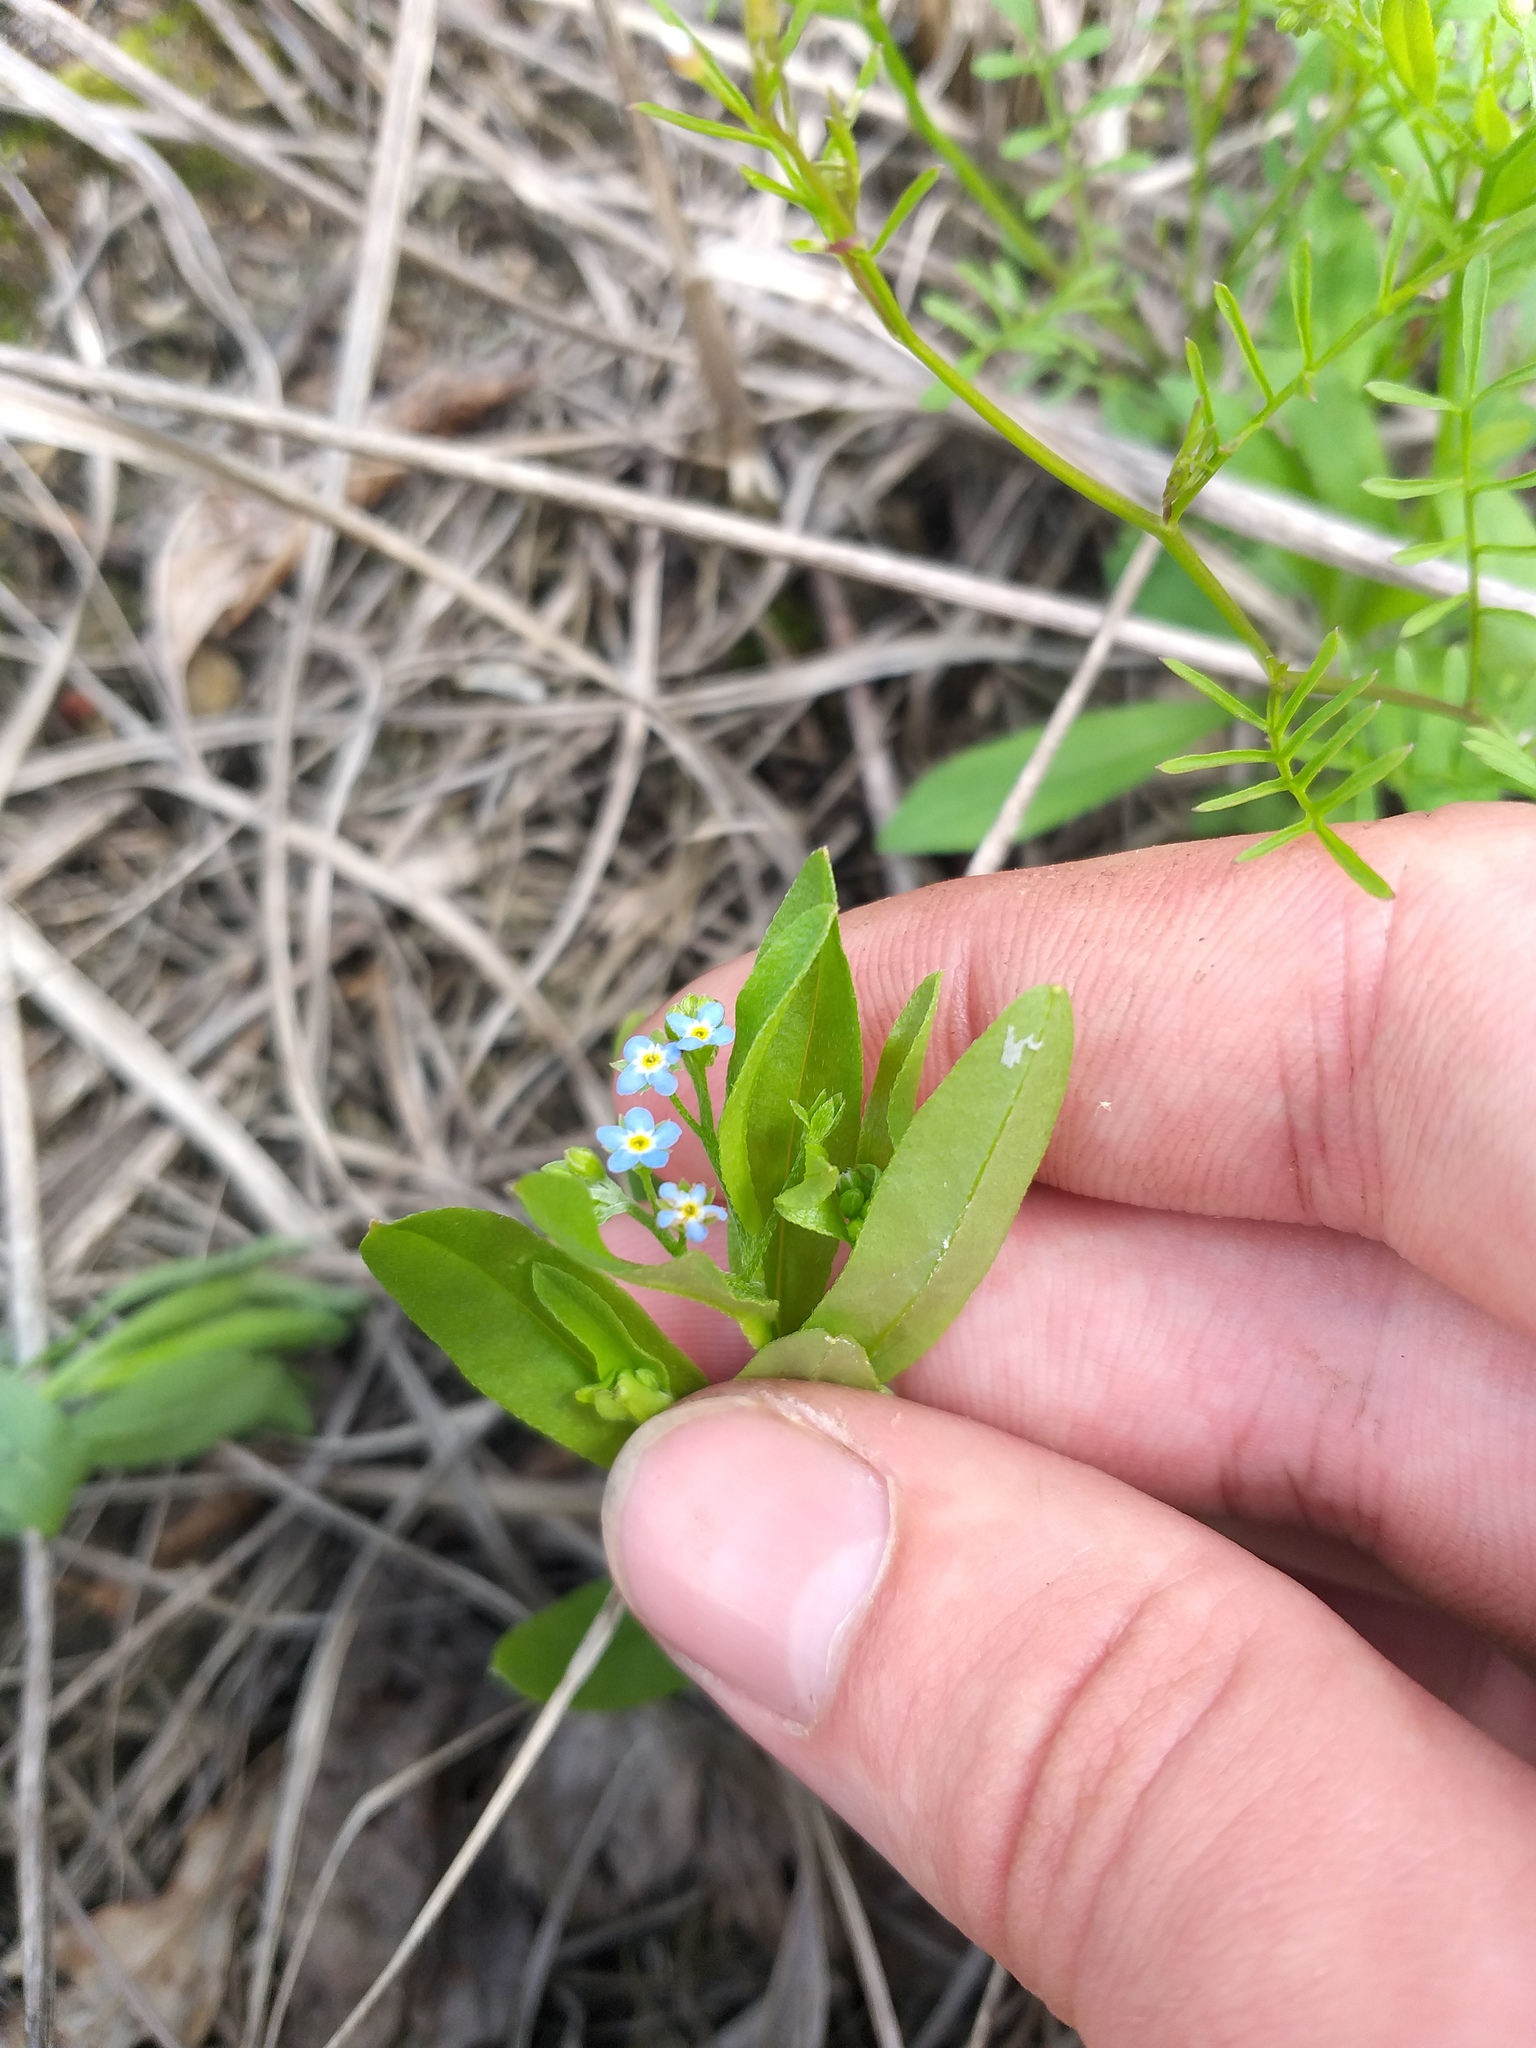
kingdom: Plantae
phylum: Tracheophyta
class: Magnoliopsida
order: Boraginales
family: Boraginaceae
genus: Myosotis
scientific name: Myosotis laxa
